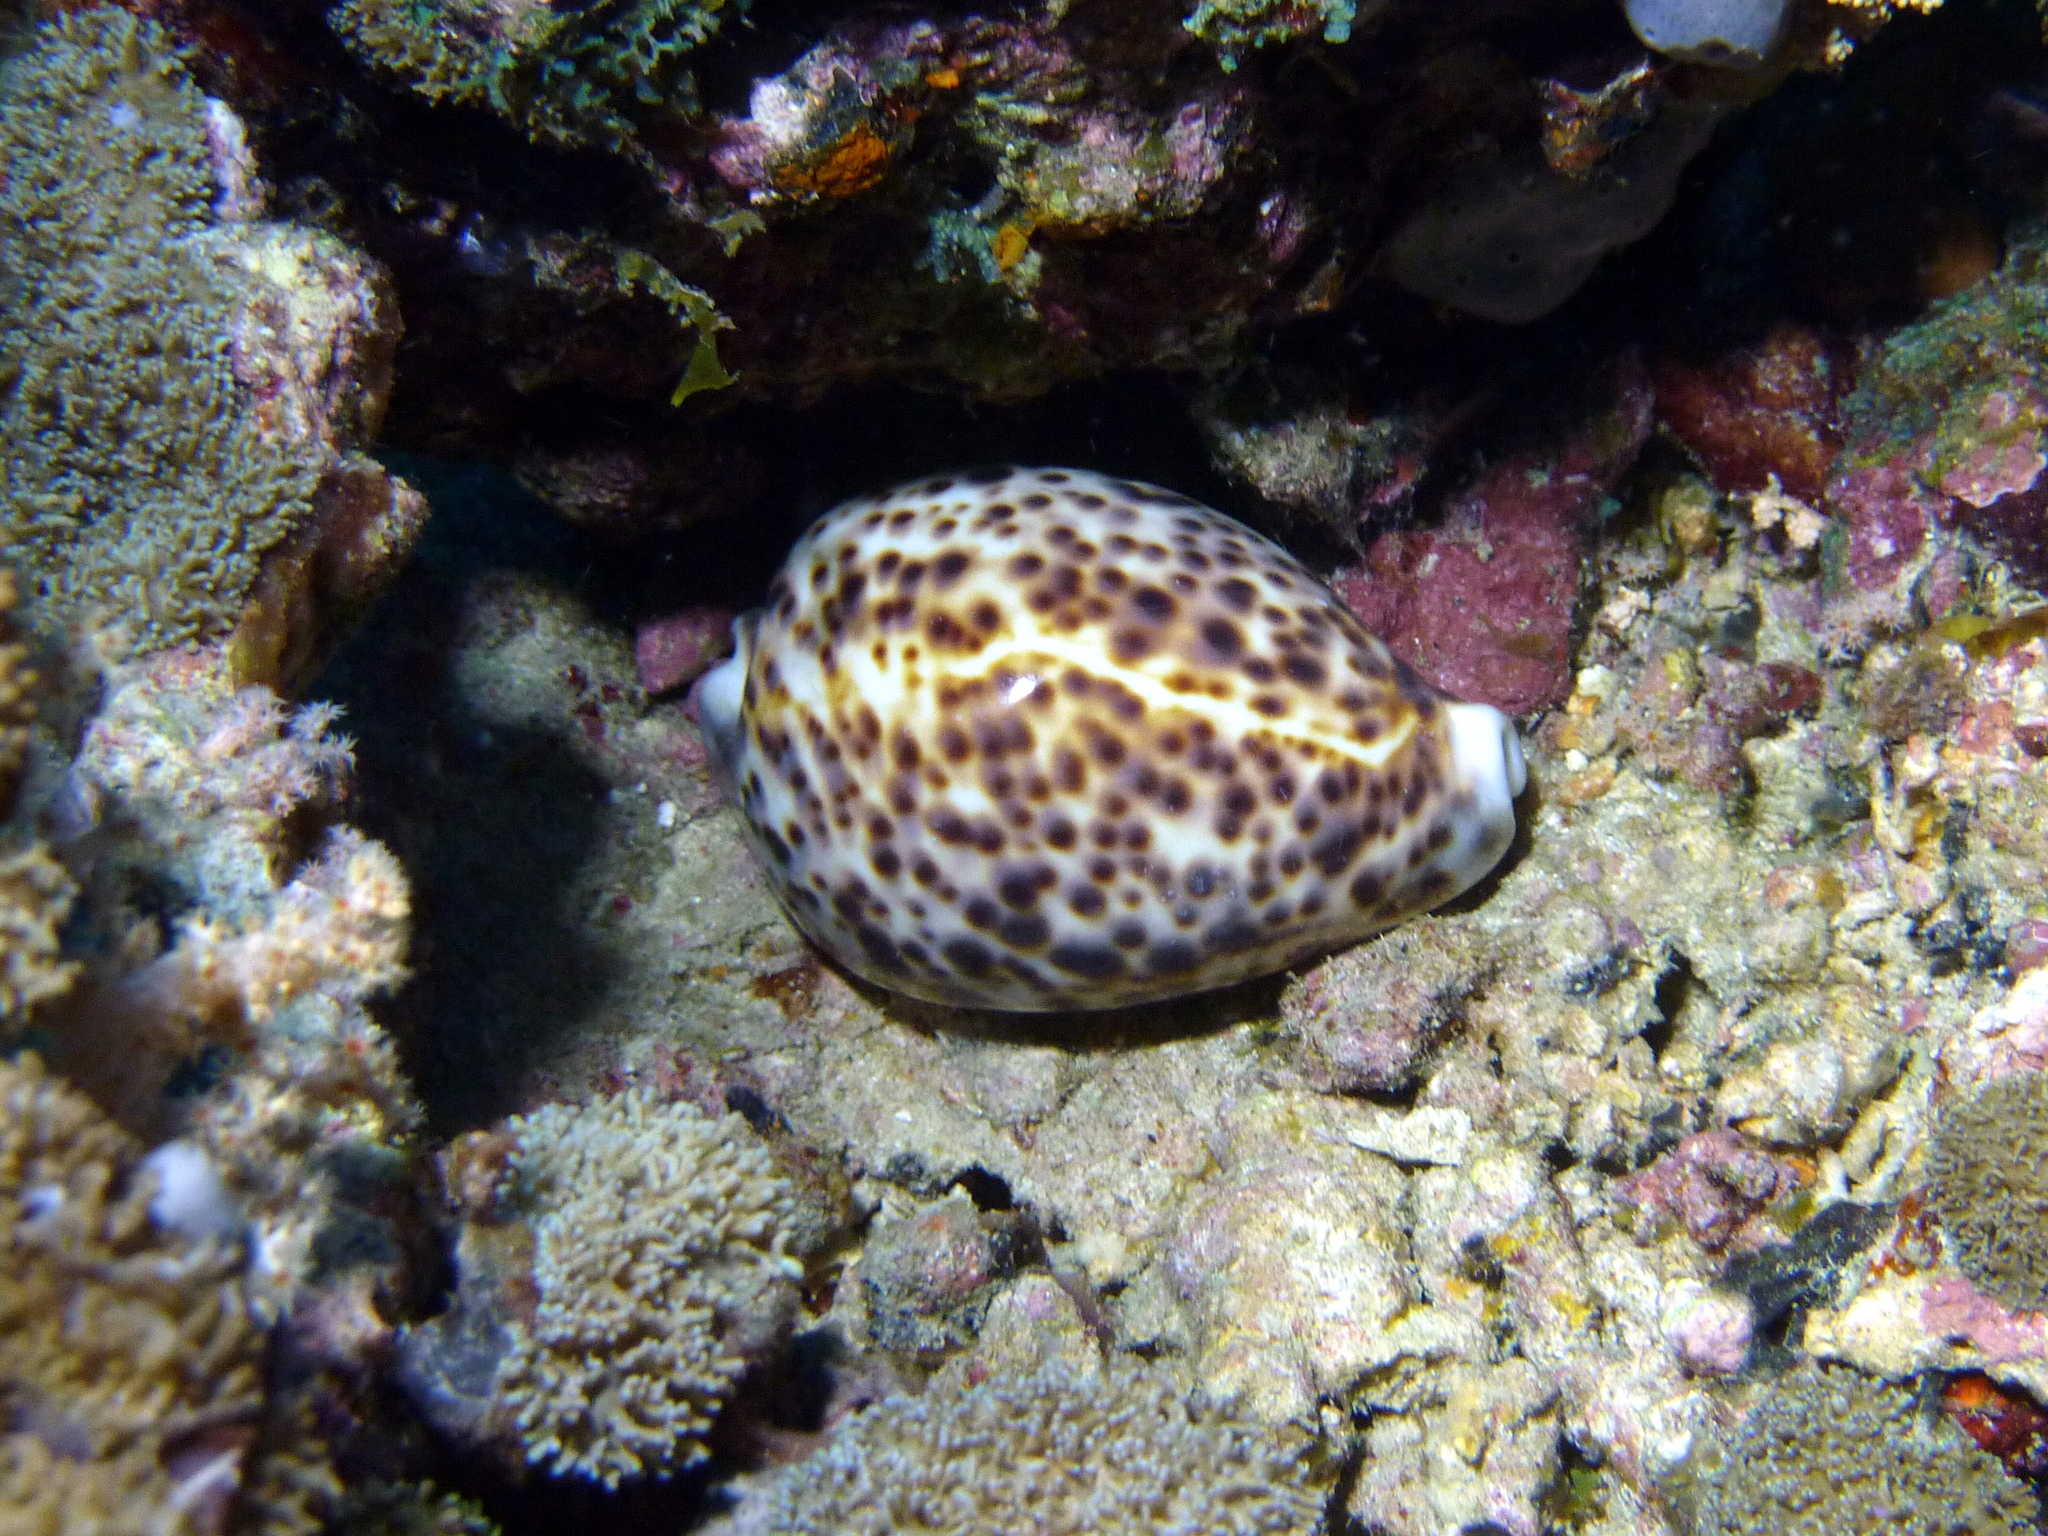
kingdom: Animalia
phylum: Mollusca
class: Gastropoda
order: Littorinimorpha
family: Cypraeidae
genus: Cypraea
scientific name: Cypraea tigris
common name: Tiger cowrie
